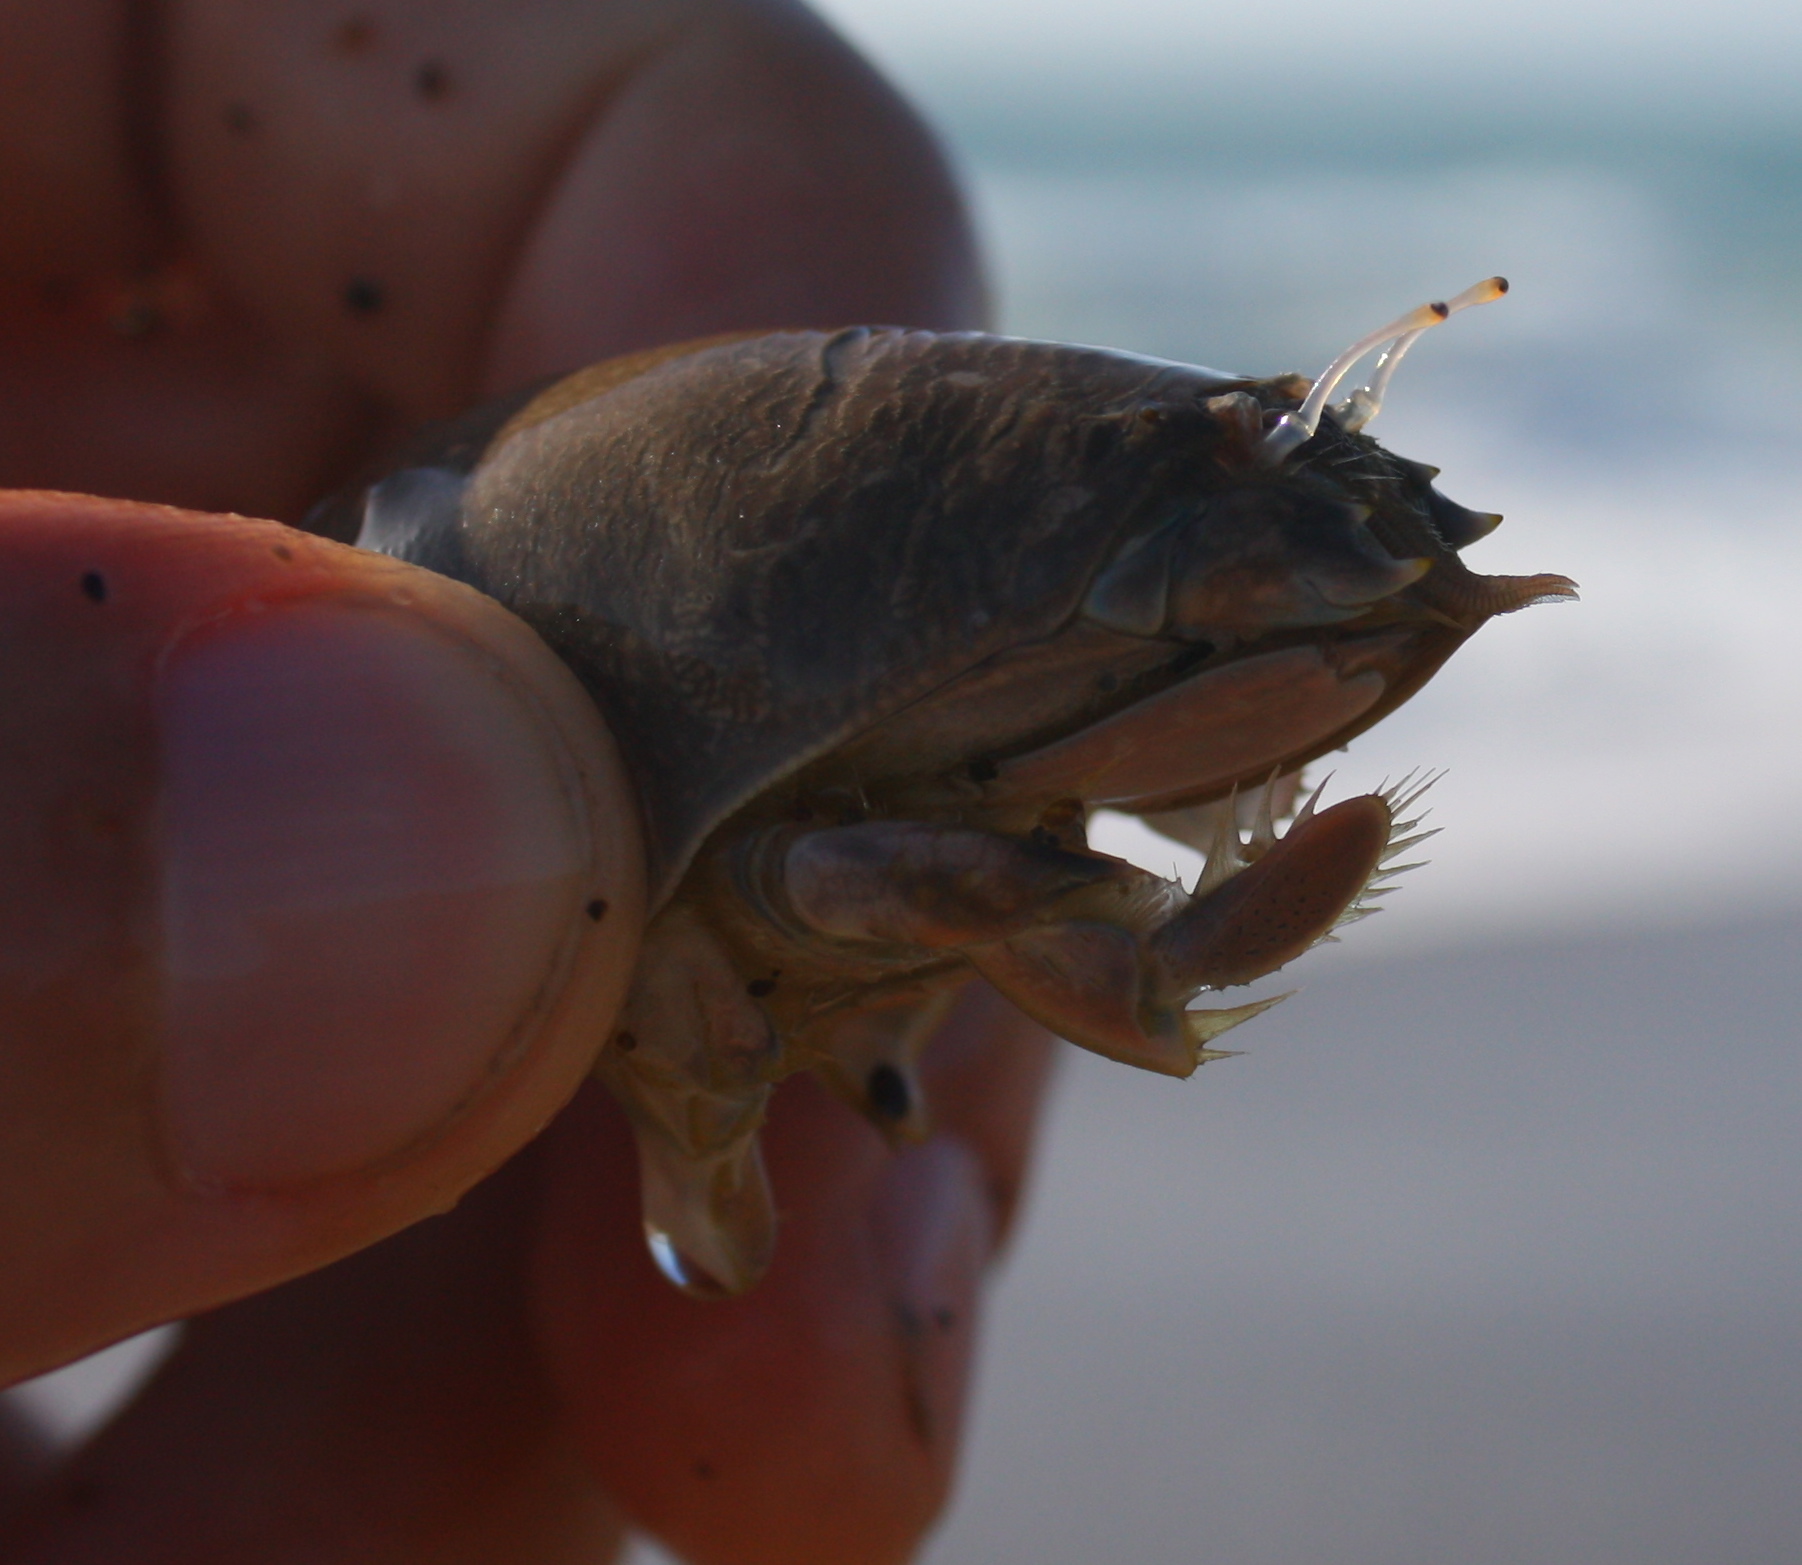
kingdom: Animalia
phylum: Arthropoda
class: Malacostraca
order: Decapoda
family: Hippidae
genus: Emerita
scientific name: Emerita analoga
